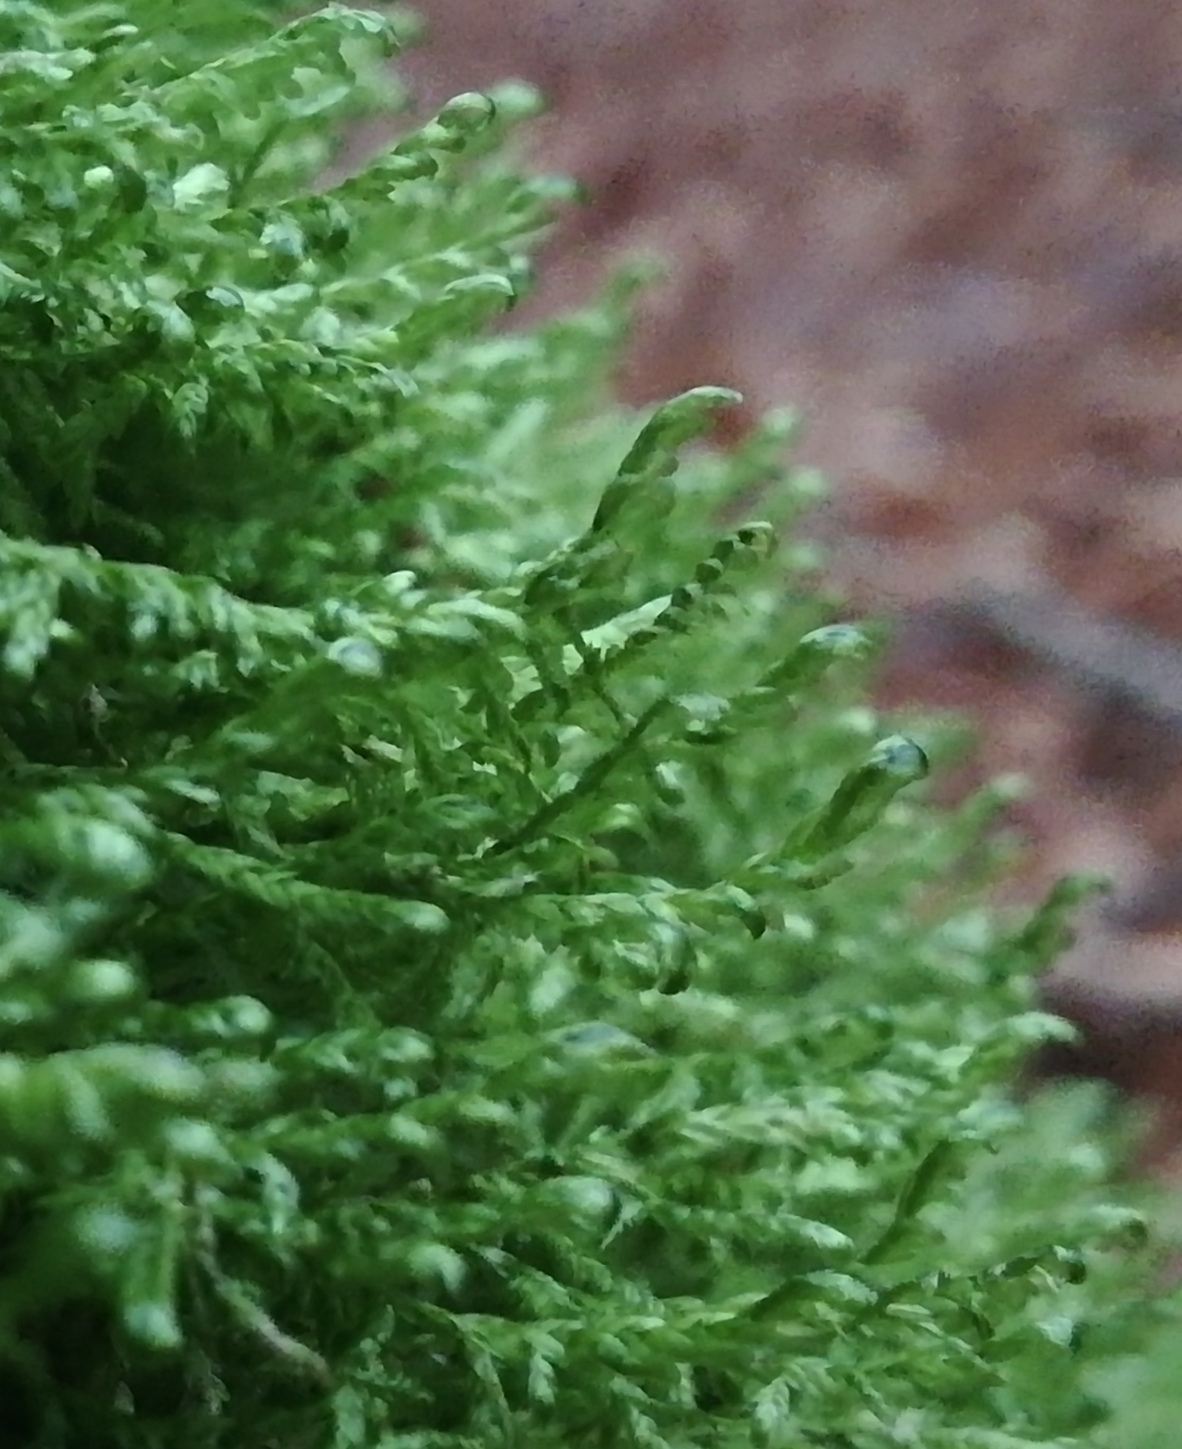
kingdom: Plantae
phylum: Bryophyta
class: Bryopsida
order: Hypnales
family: Neckeraceae
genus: Alleniella
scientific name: Alleniella complanata
